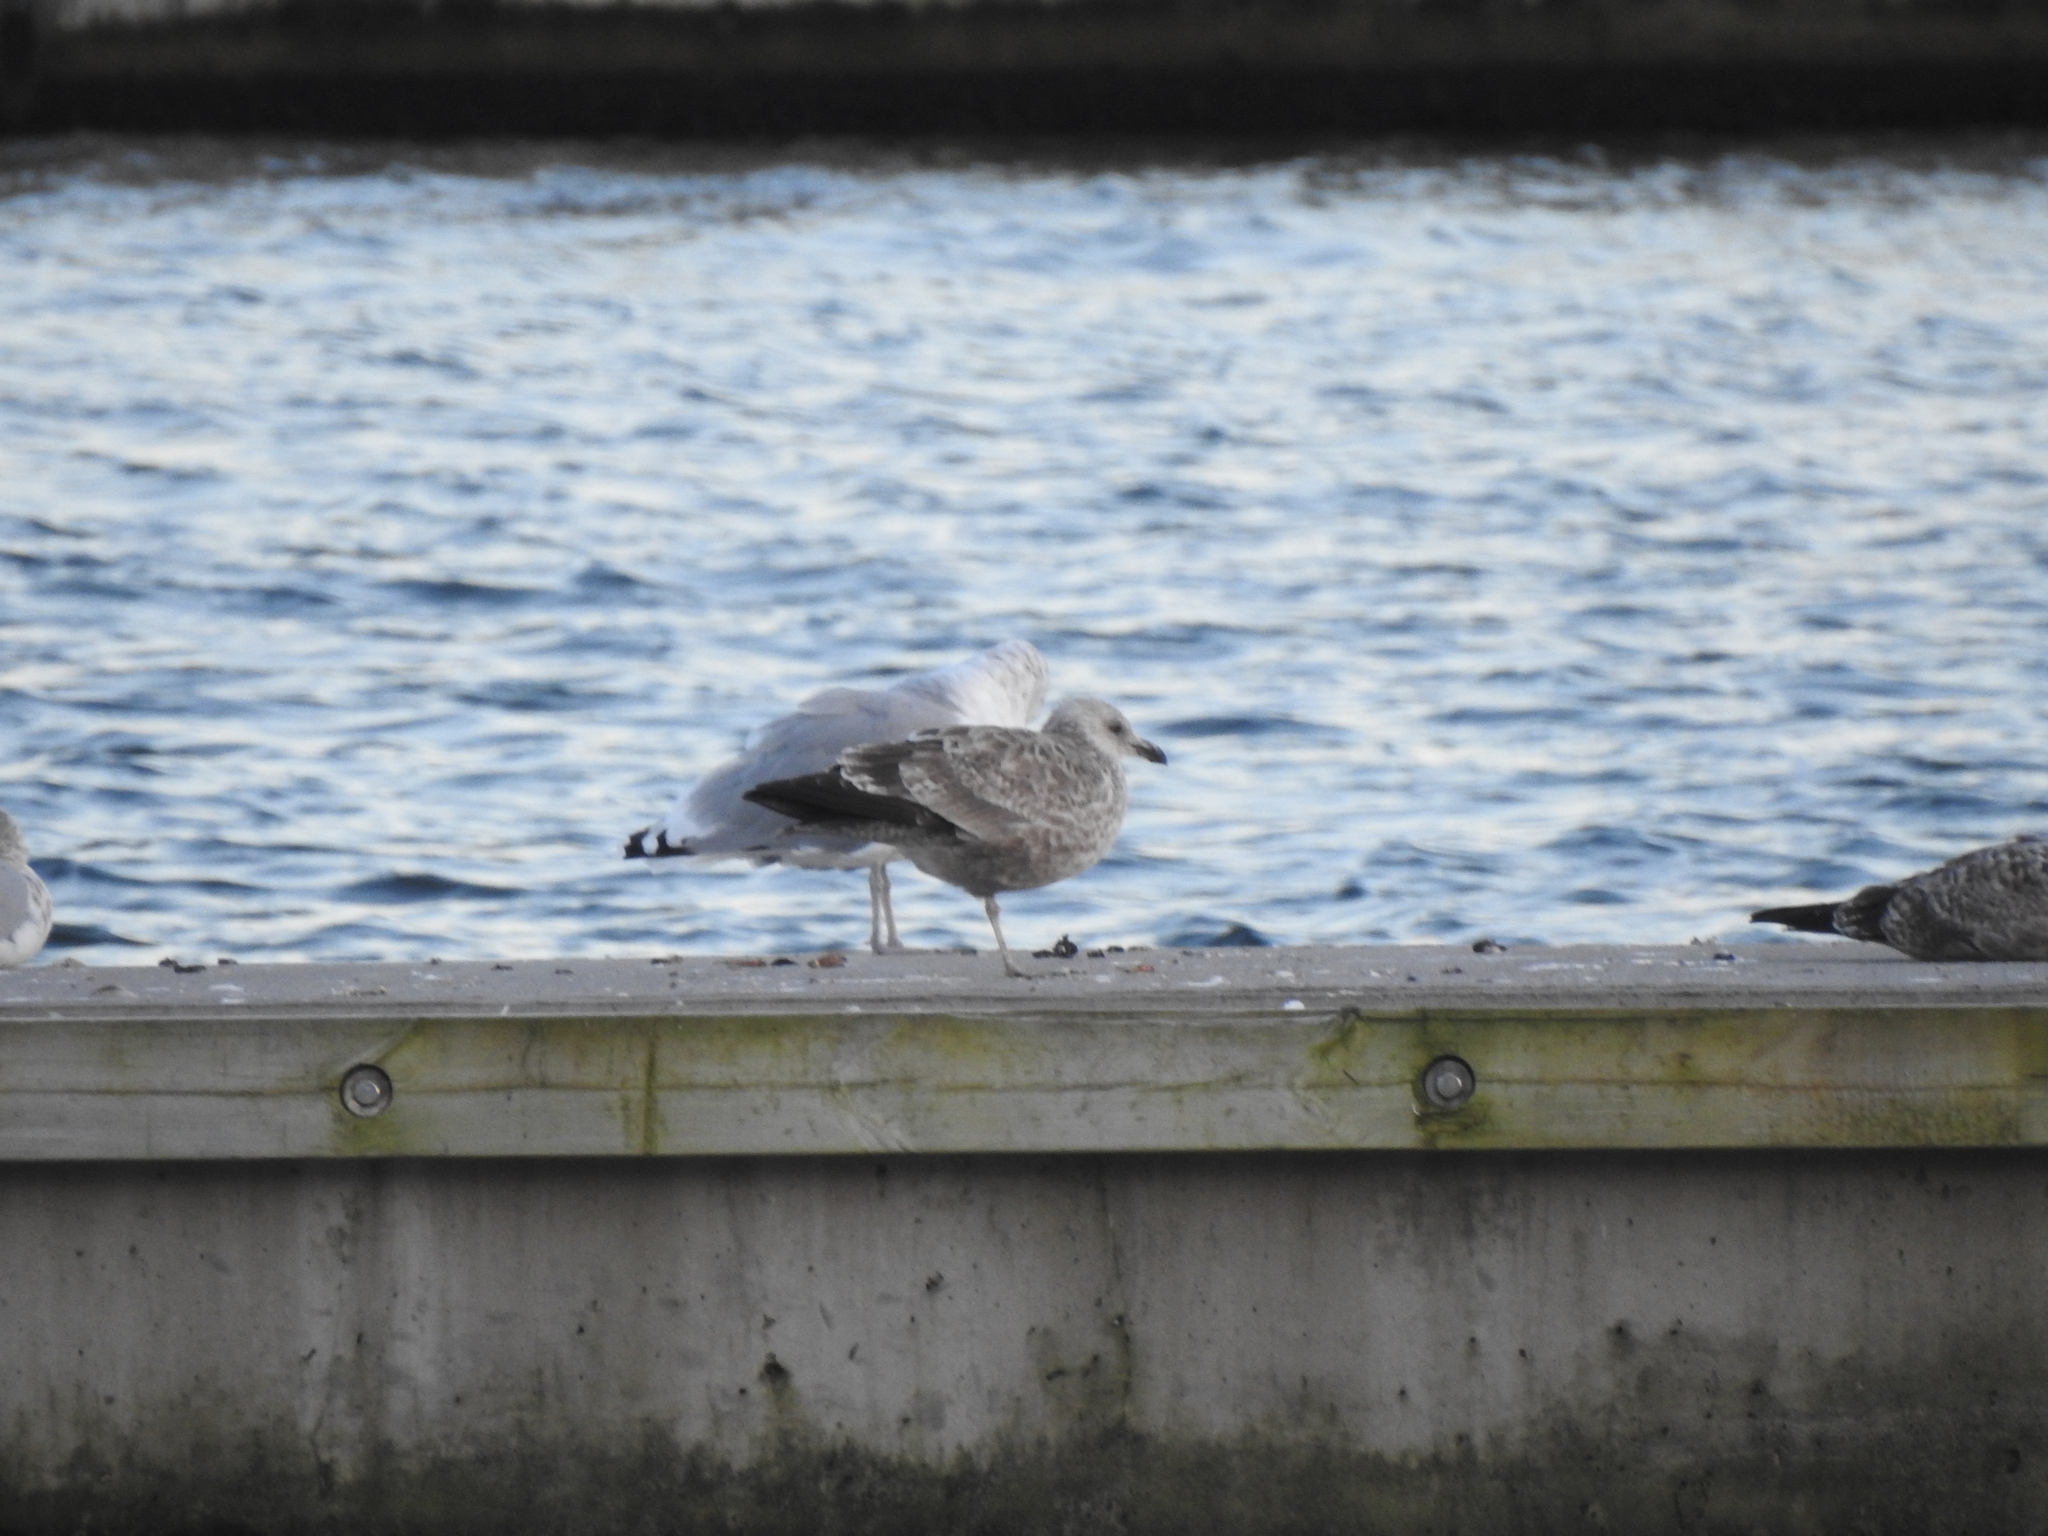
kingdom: Animalia
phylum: Chordata
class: Aves
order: Charadriiformes
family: Laridae
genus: Larus
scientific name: Larus argentatus
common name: Herring gull
